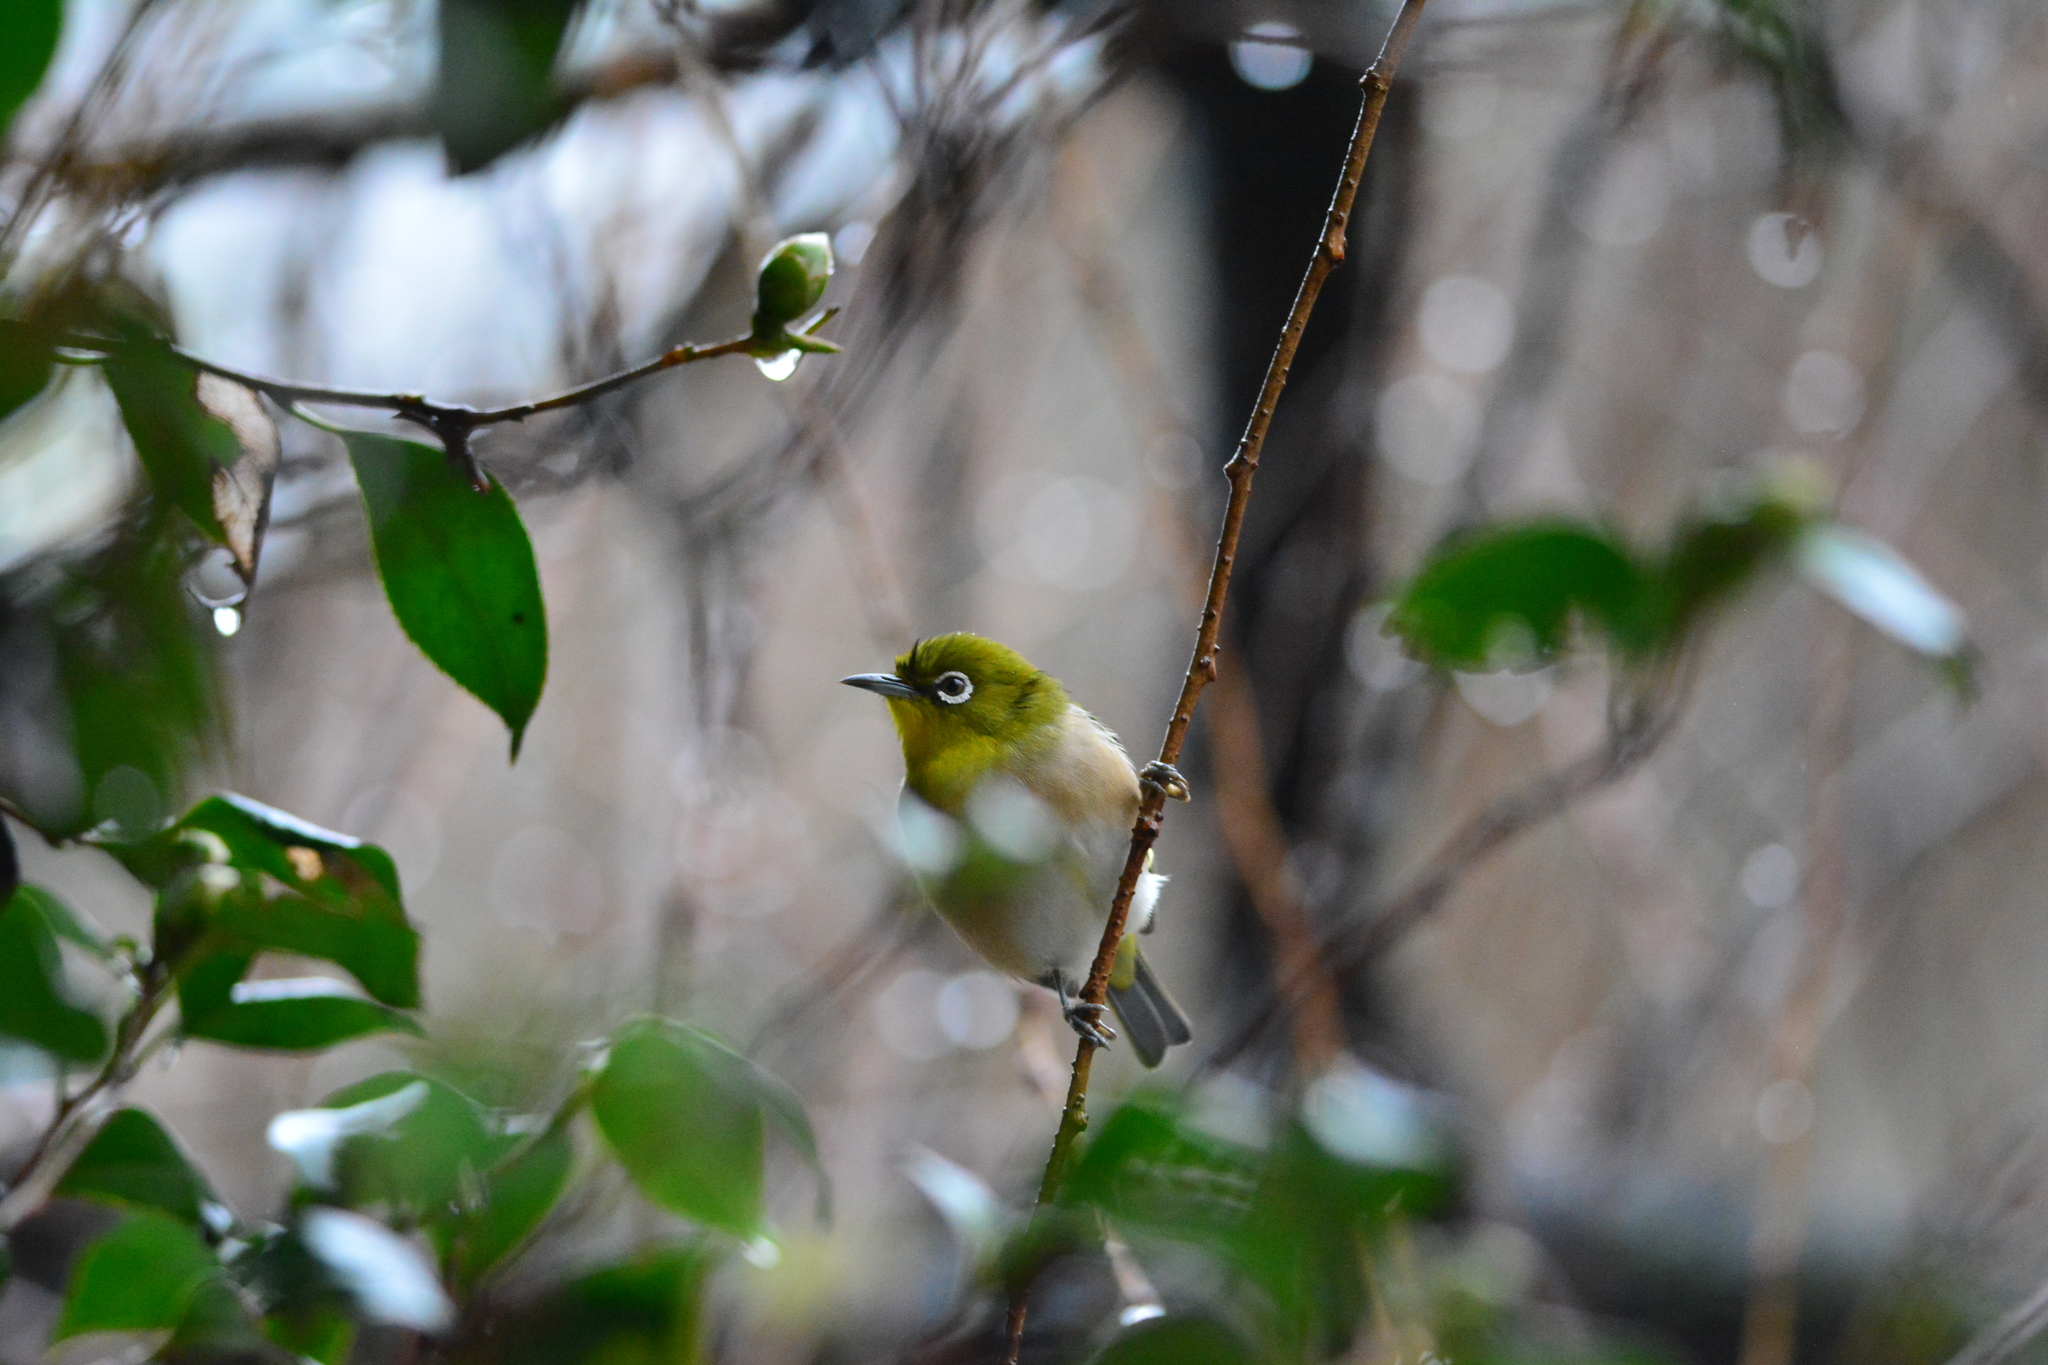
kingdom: Animalia
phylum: Chordata
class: Aves
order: Passeriformes
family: Zosteropidae
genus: Zosterops
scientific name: Zosterops japonicus
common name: Japanese white-eye
